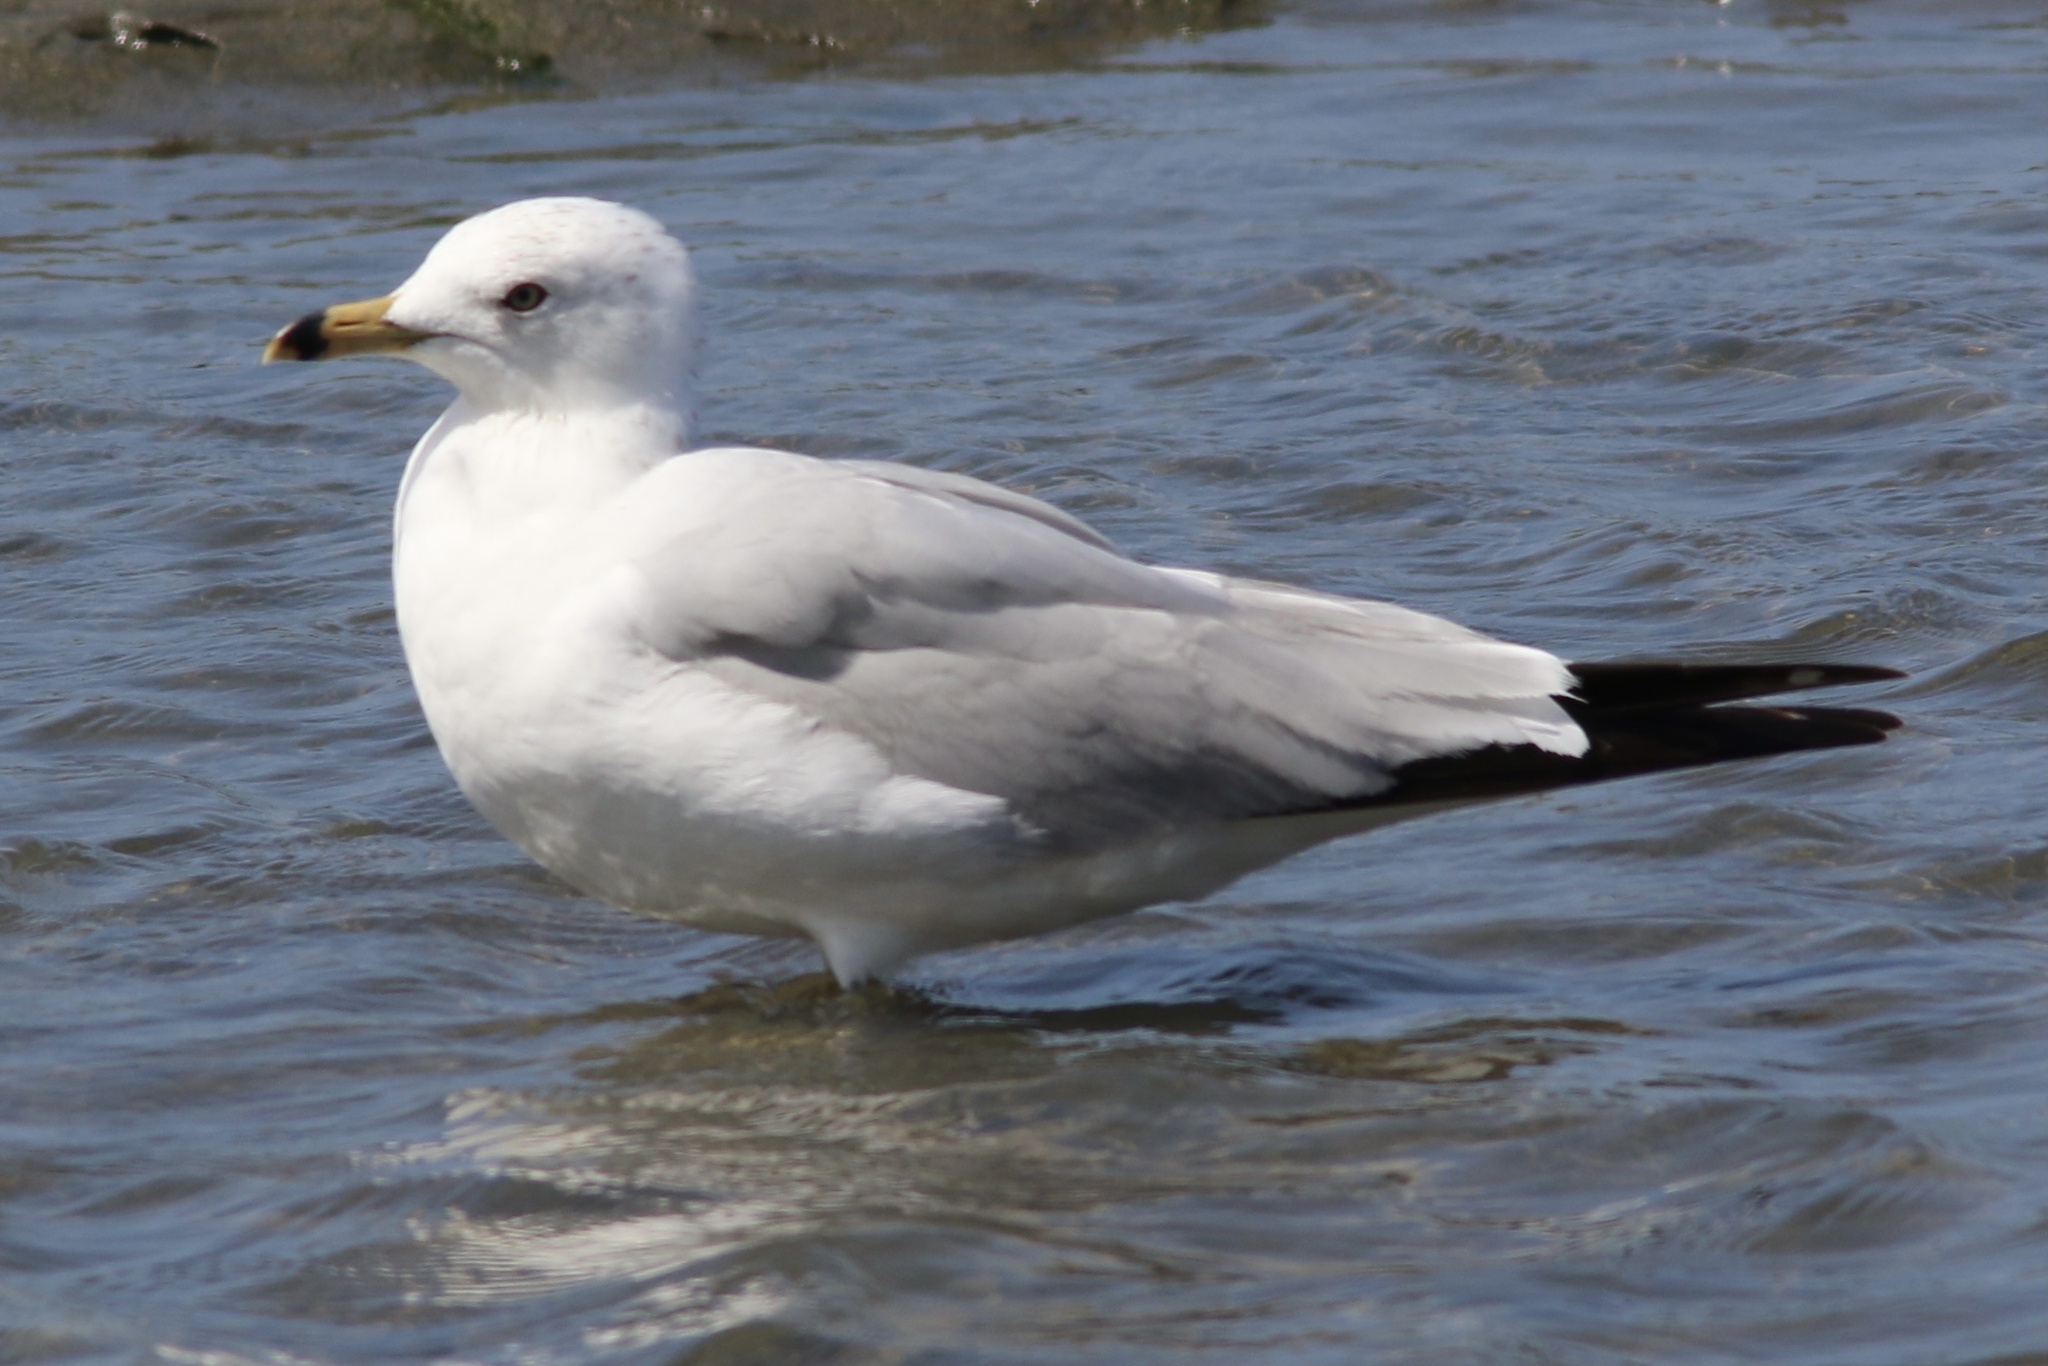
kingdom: Animalia
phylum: Chordata
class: Aves
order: Charadriiformes
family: Laridae
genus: Larus
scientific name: Larus delawarensis
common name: Ring-billed gull
